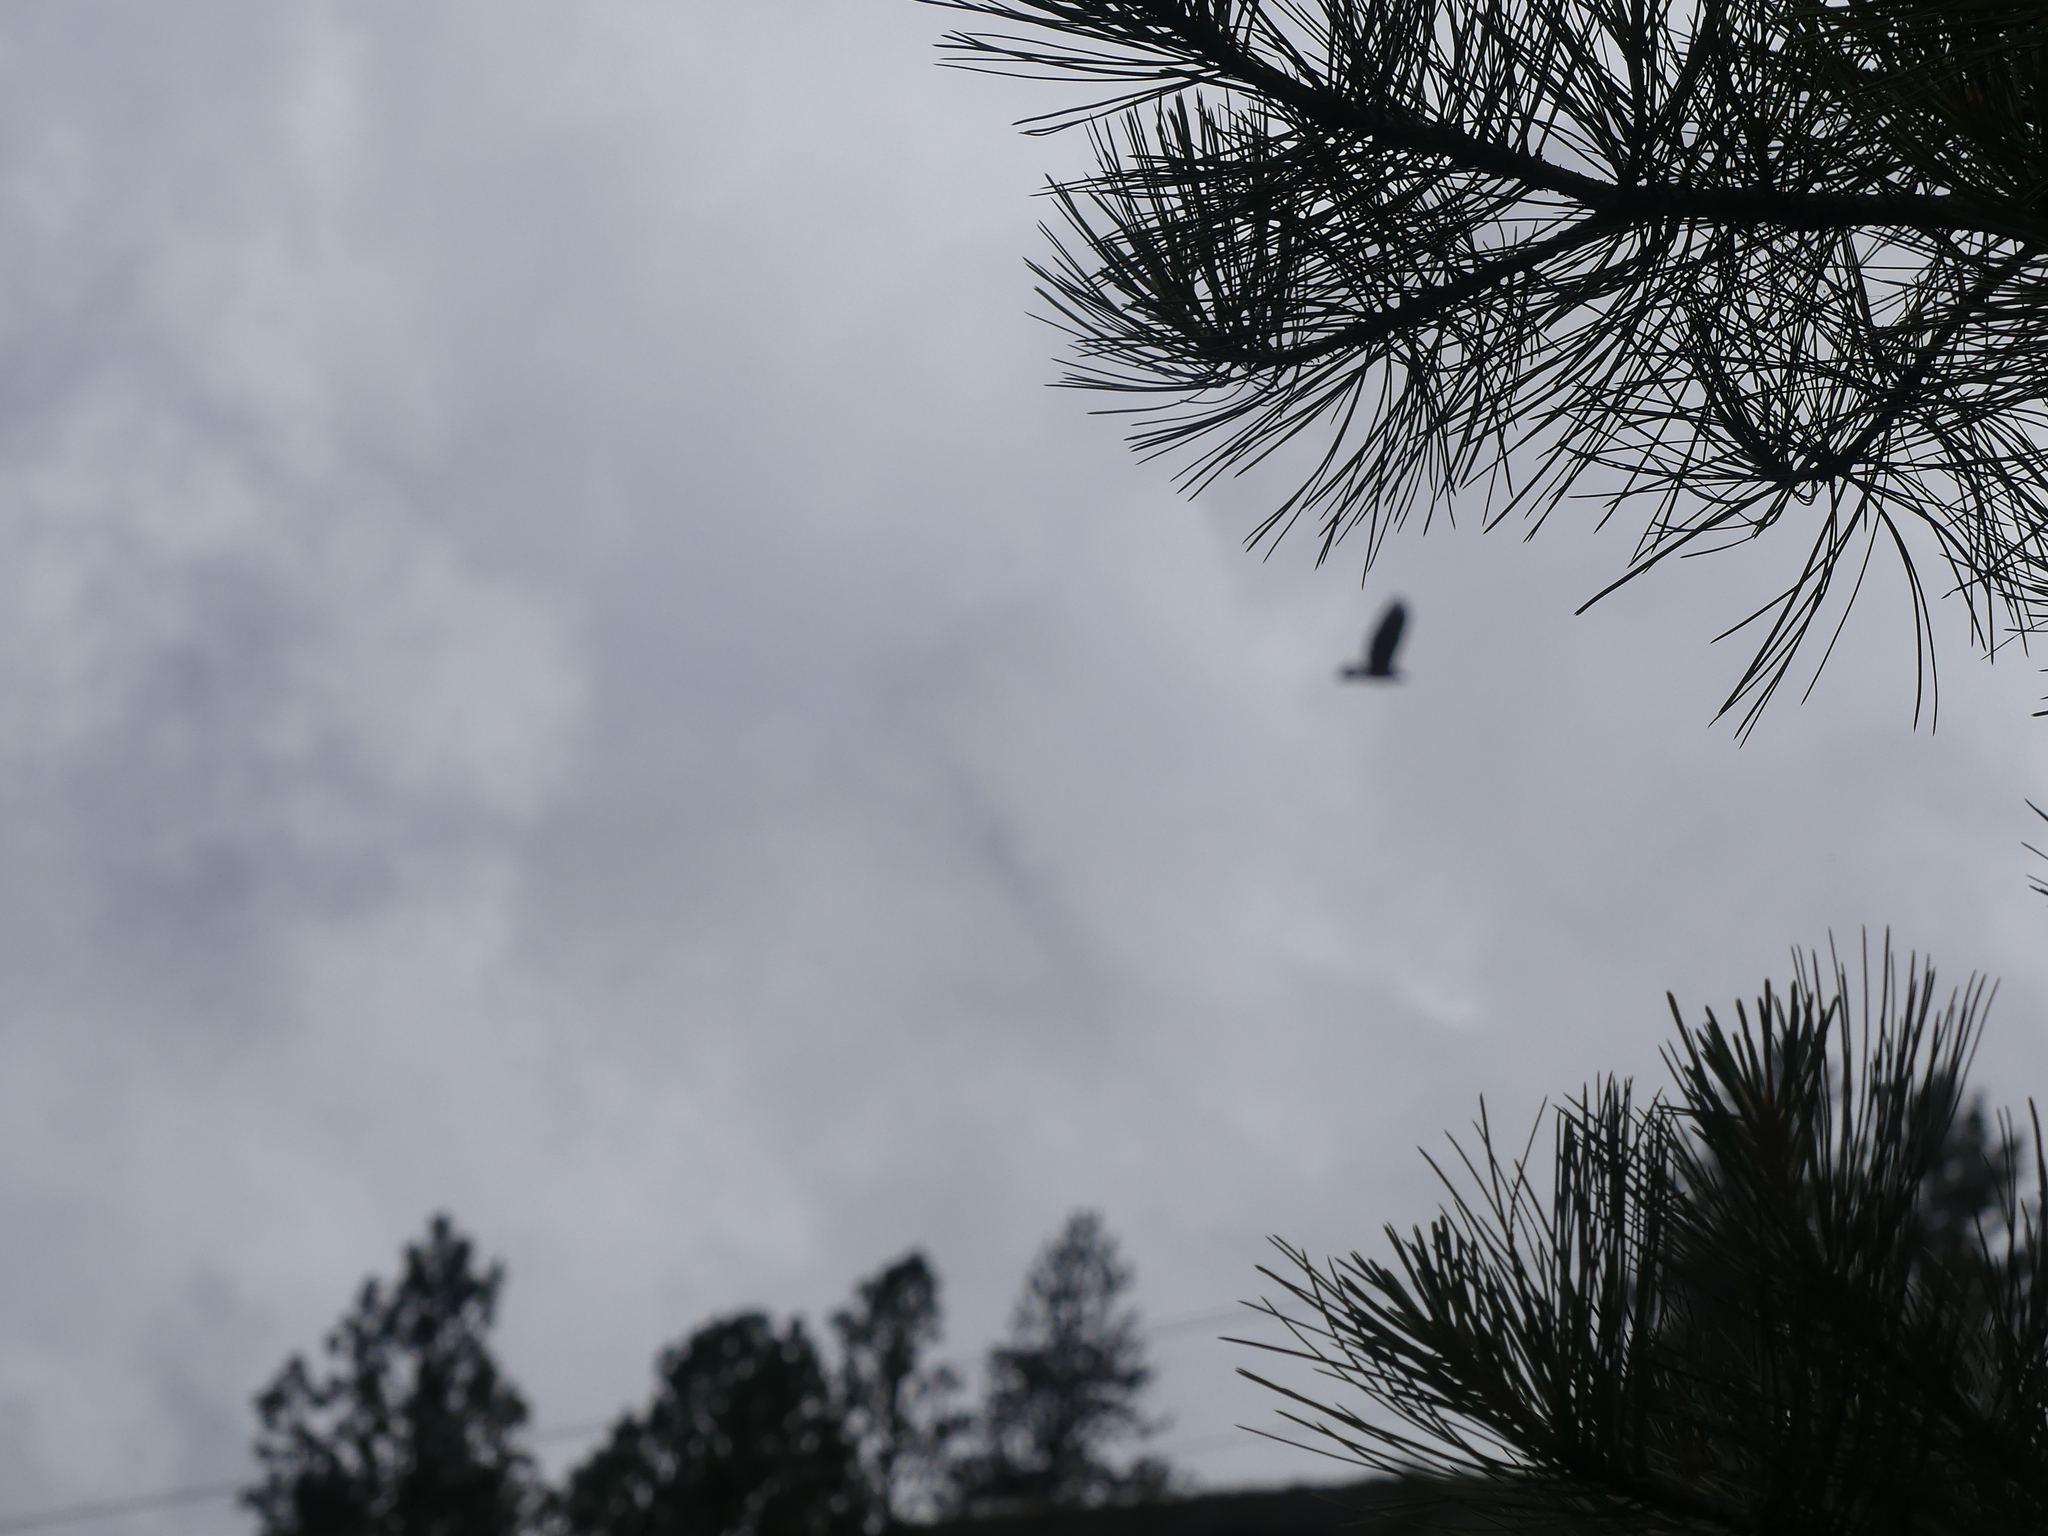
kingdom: Animalia
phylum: Chordata
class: Aves
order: Accipitriformes
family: Accipitridae
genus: Buteo
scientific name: Buteo jamaicensis
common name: Red-tailed hawk
